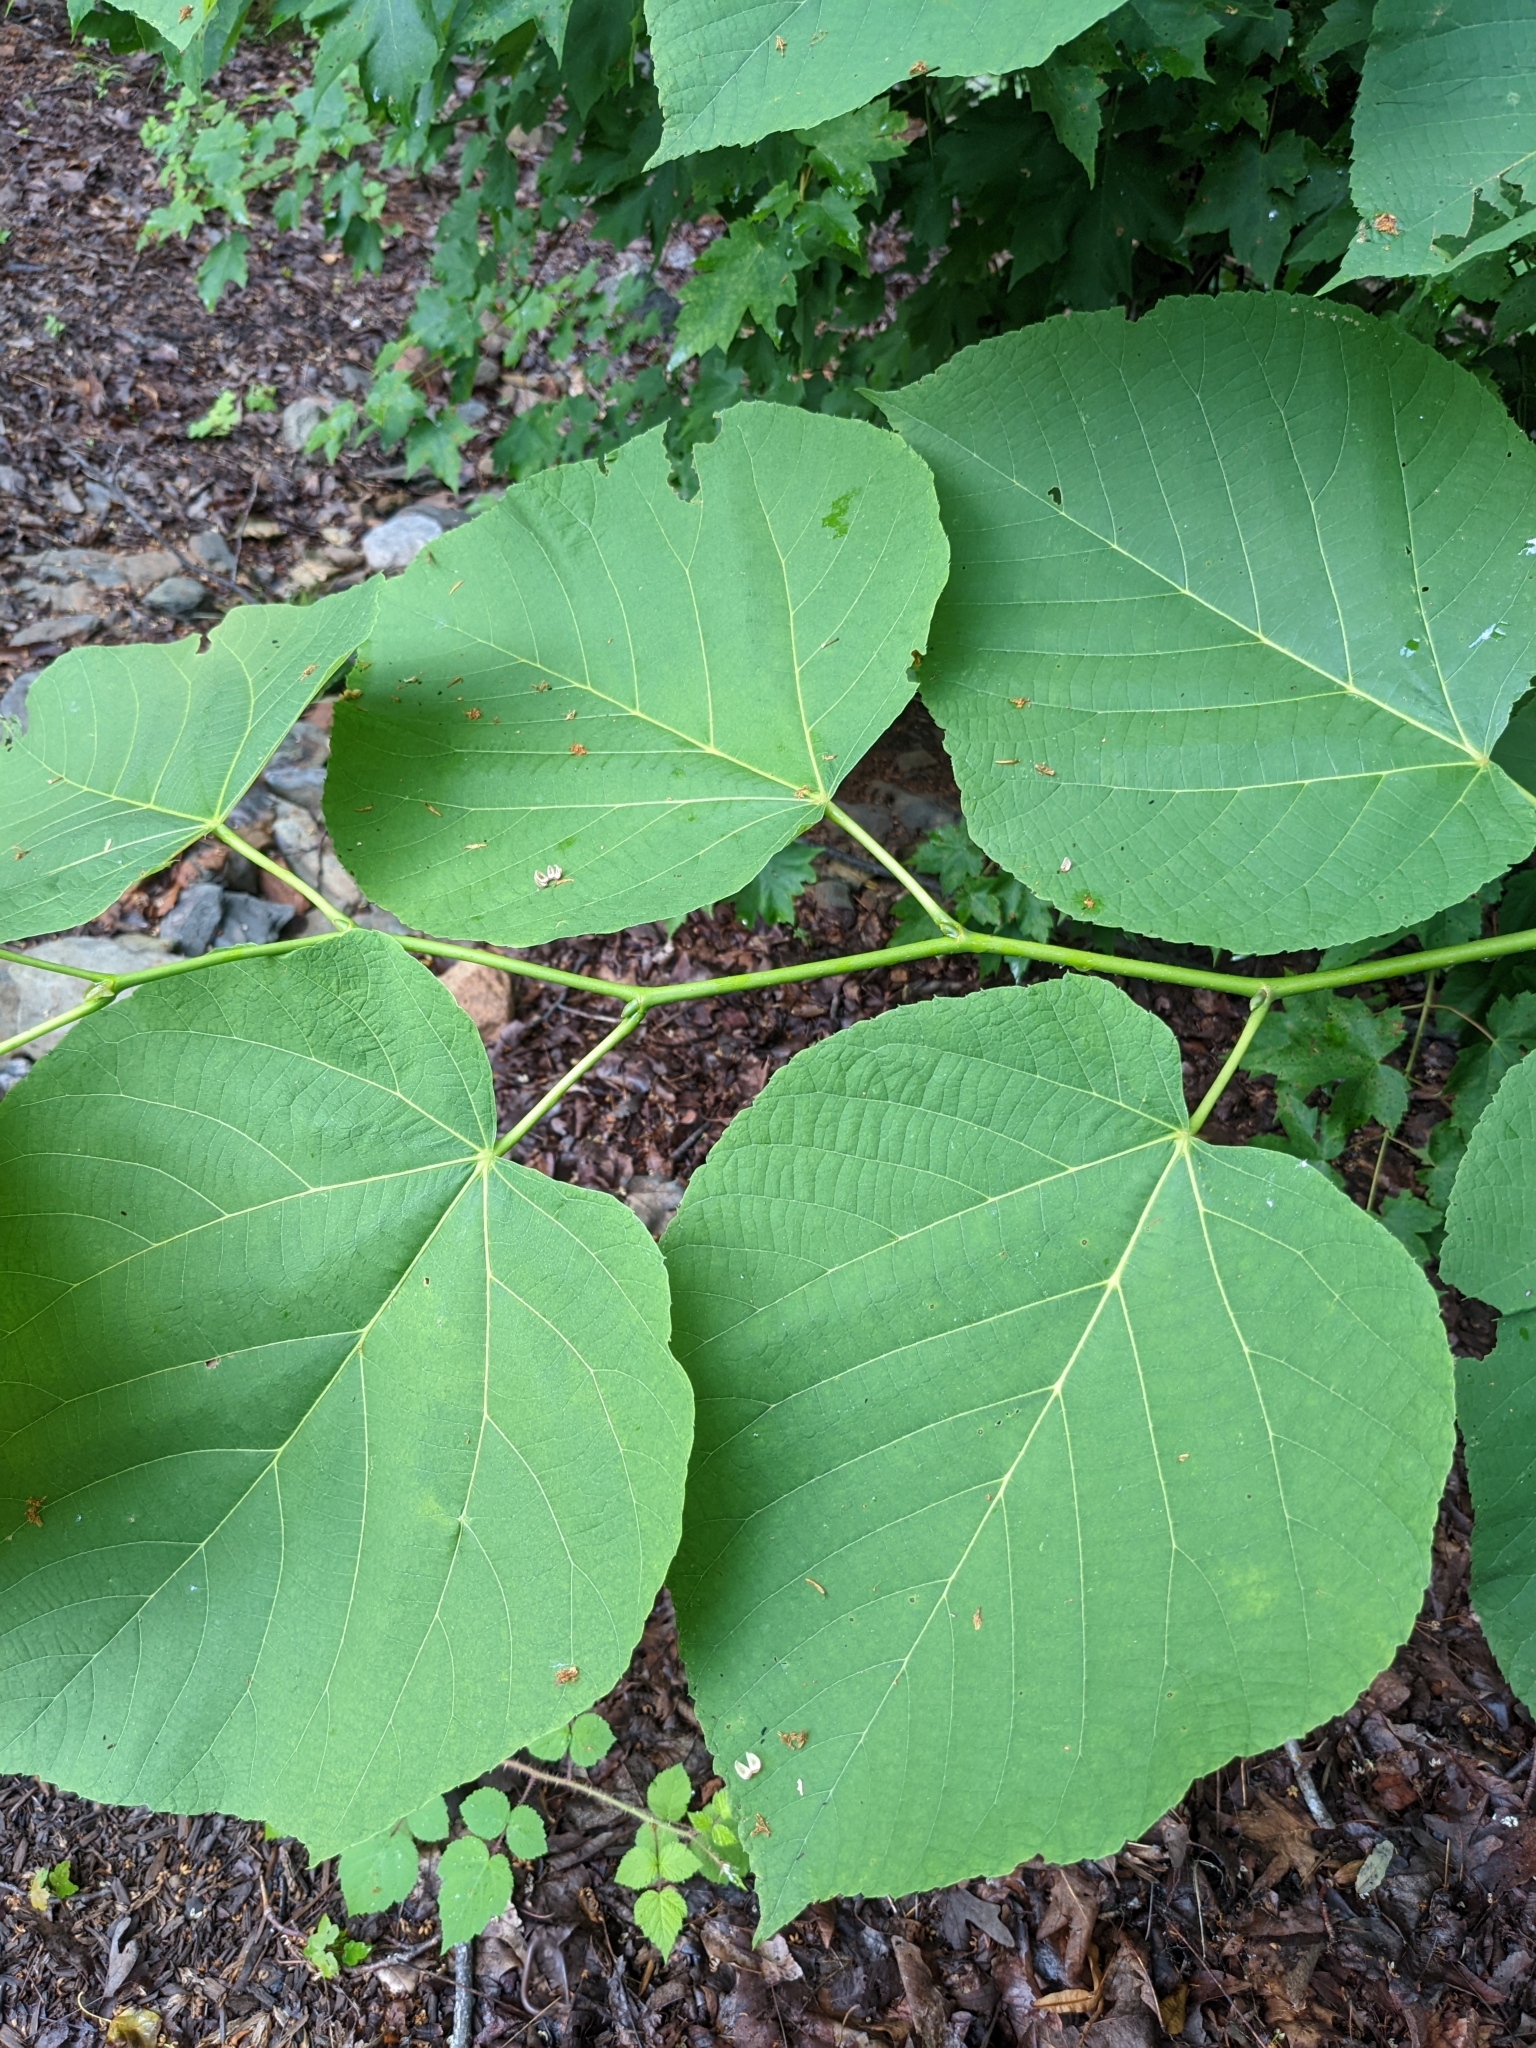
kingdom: Plantae
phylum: Tracheophyta
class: Magnoliopsida
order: Malvales
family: Malvaceae
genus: Tilia
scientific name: Tilia americana
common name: Basswood
